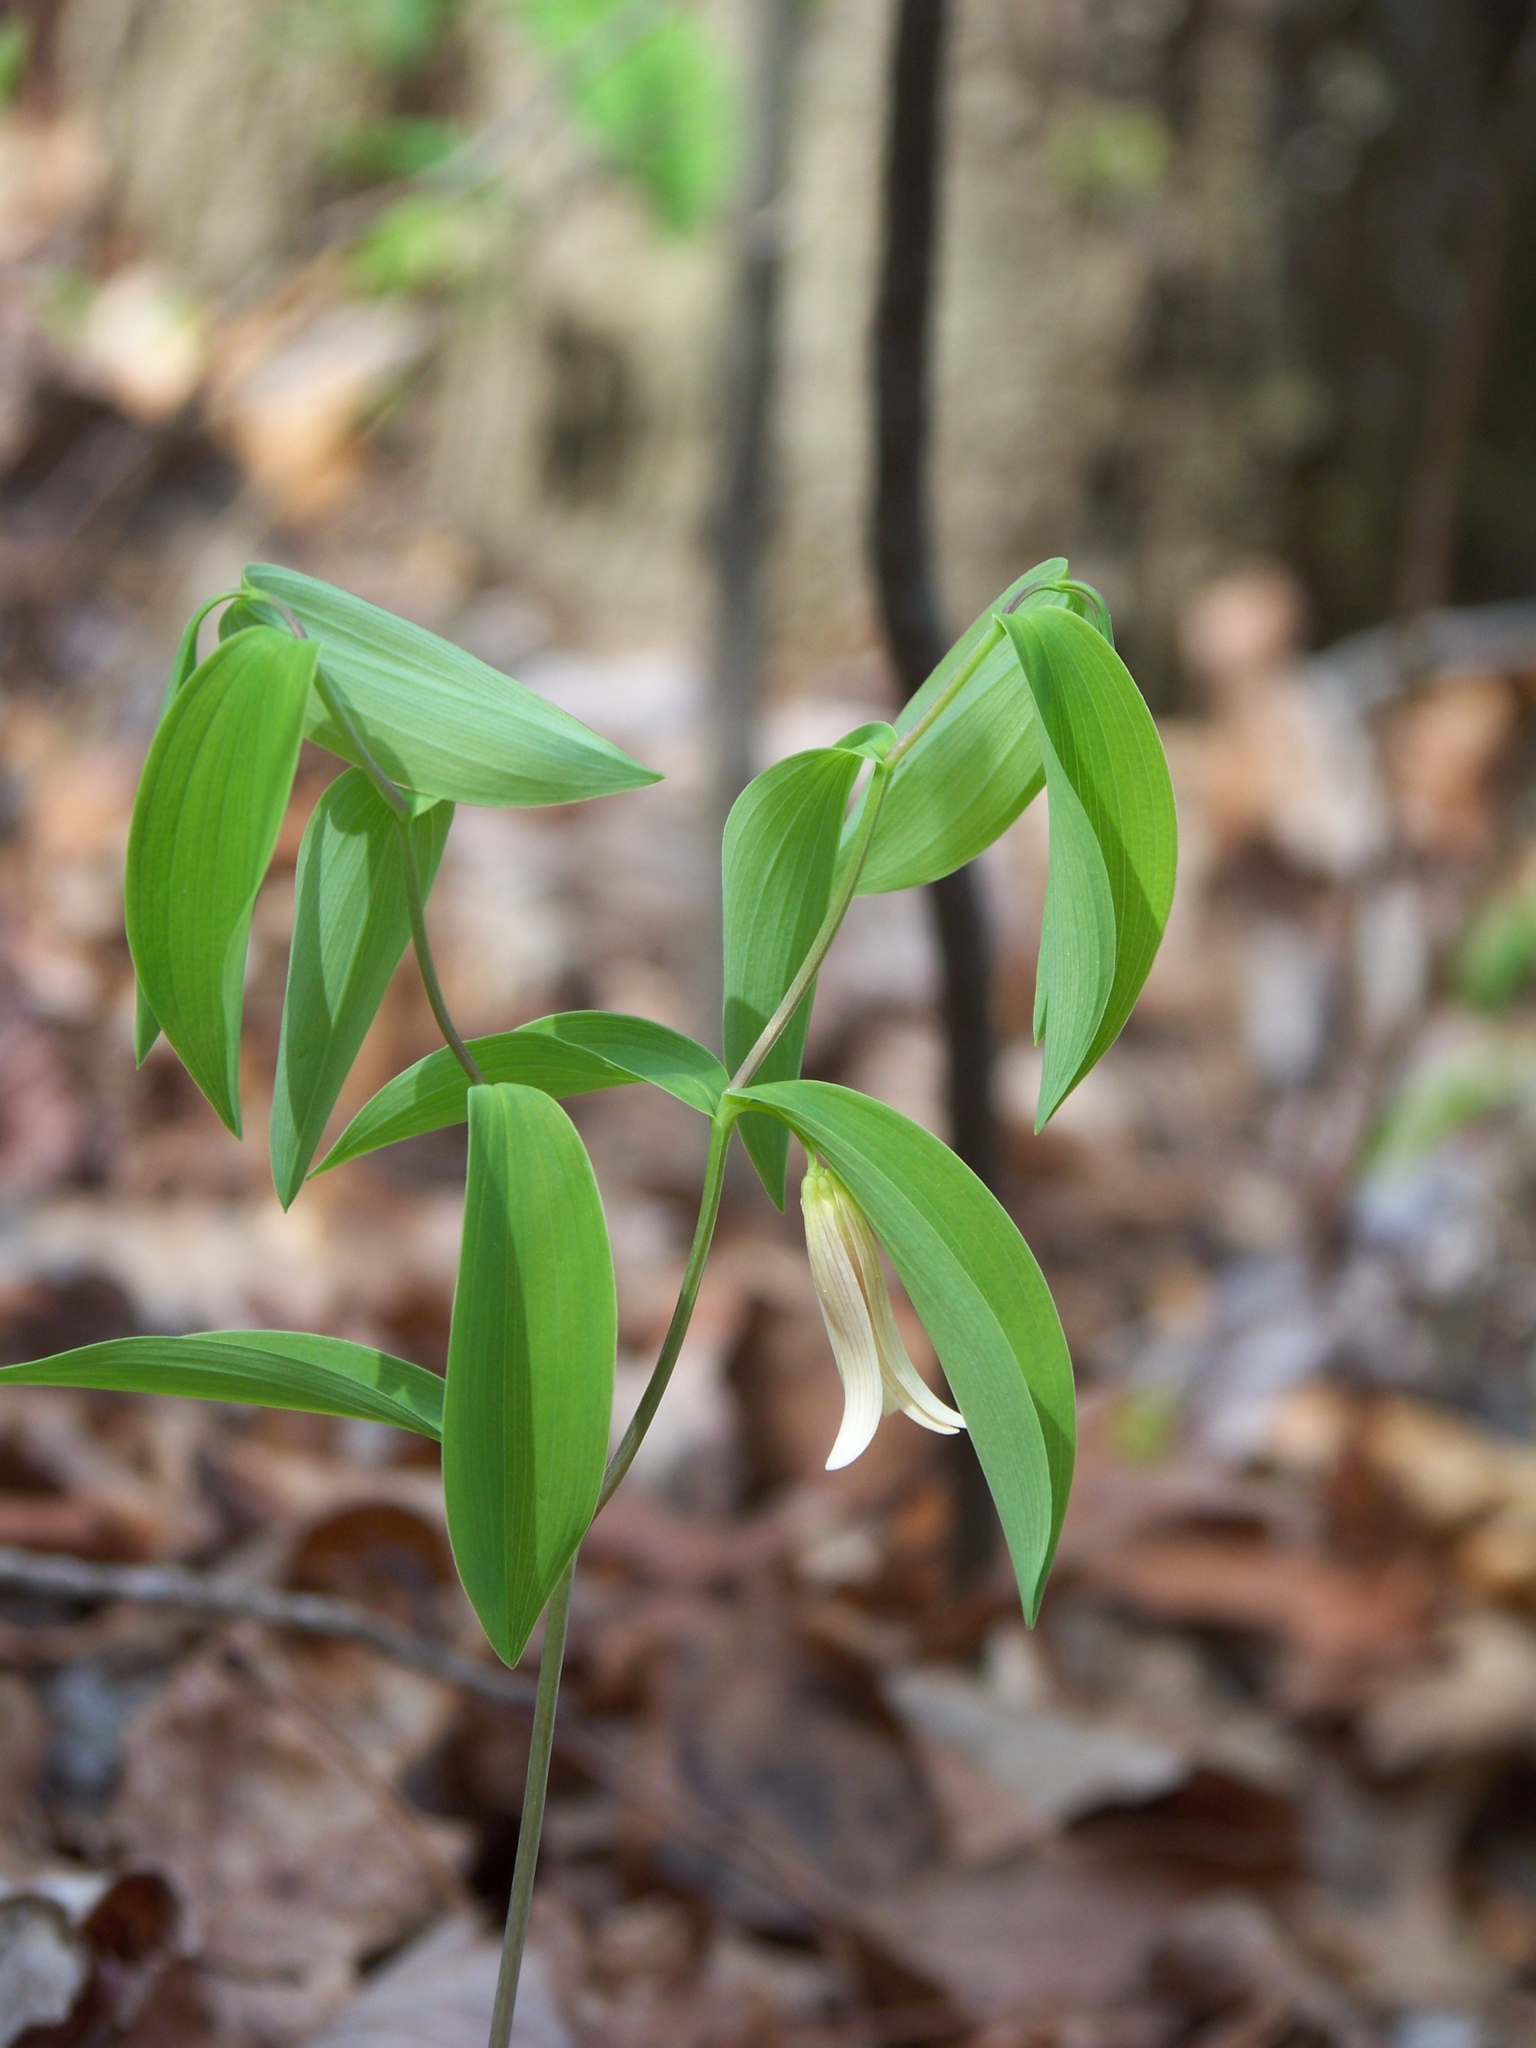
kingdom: Plantae
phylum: Tracheophyta
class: Liliopsida
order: Liliales
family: Colchicaceae
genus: Uvularia
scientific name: Uvularia sessilifolia
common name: Straw-lily
